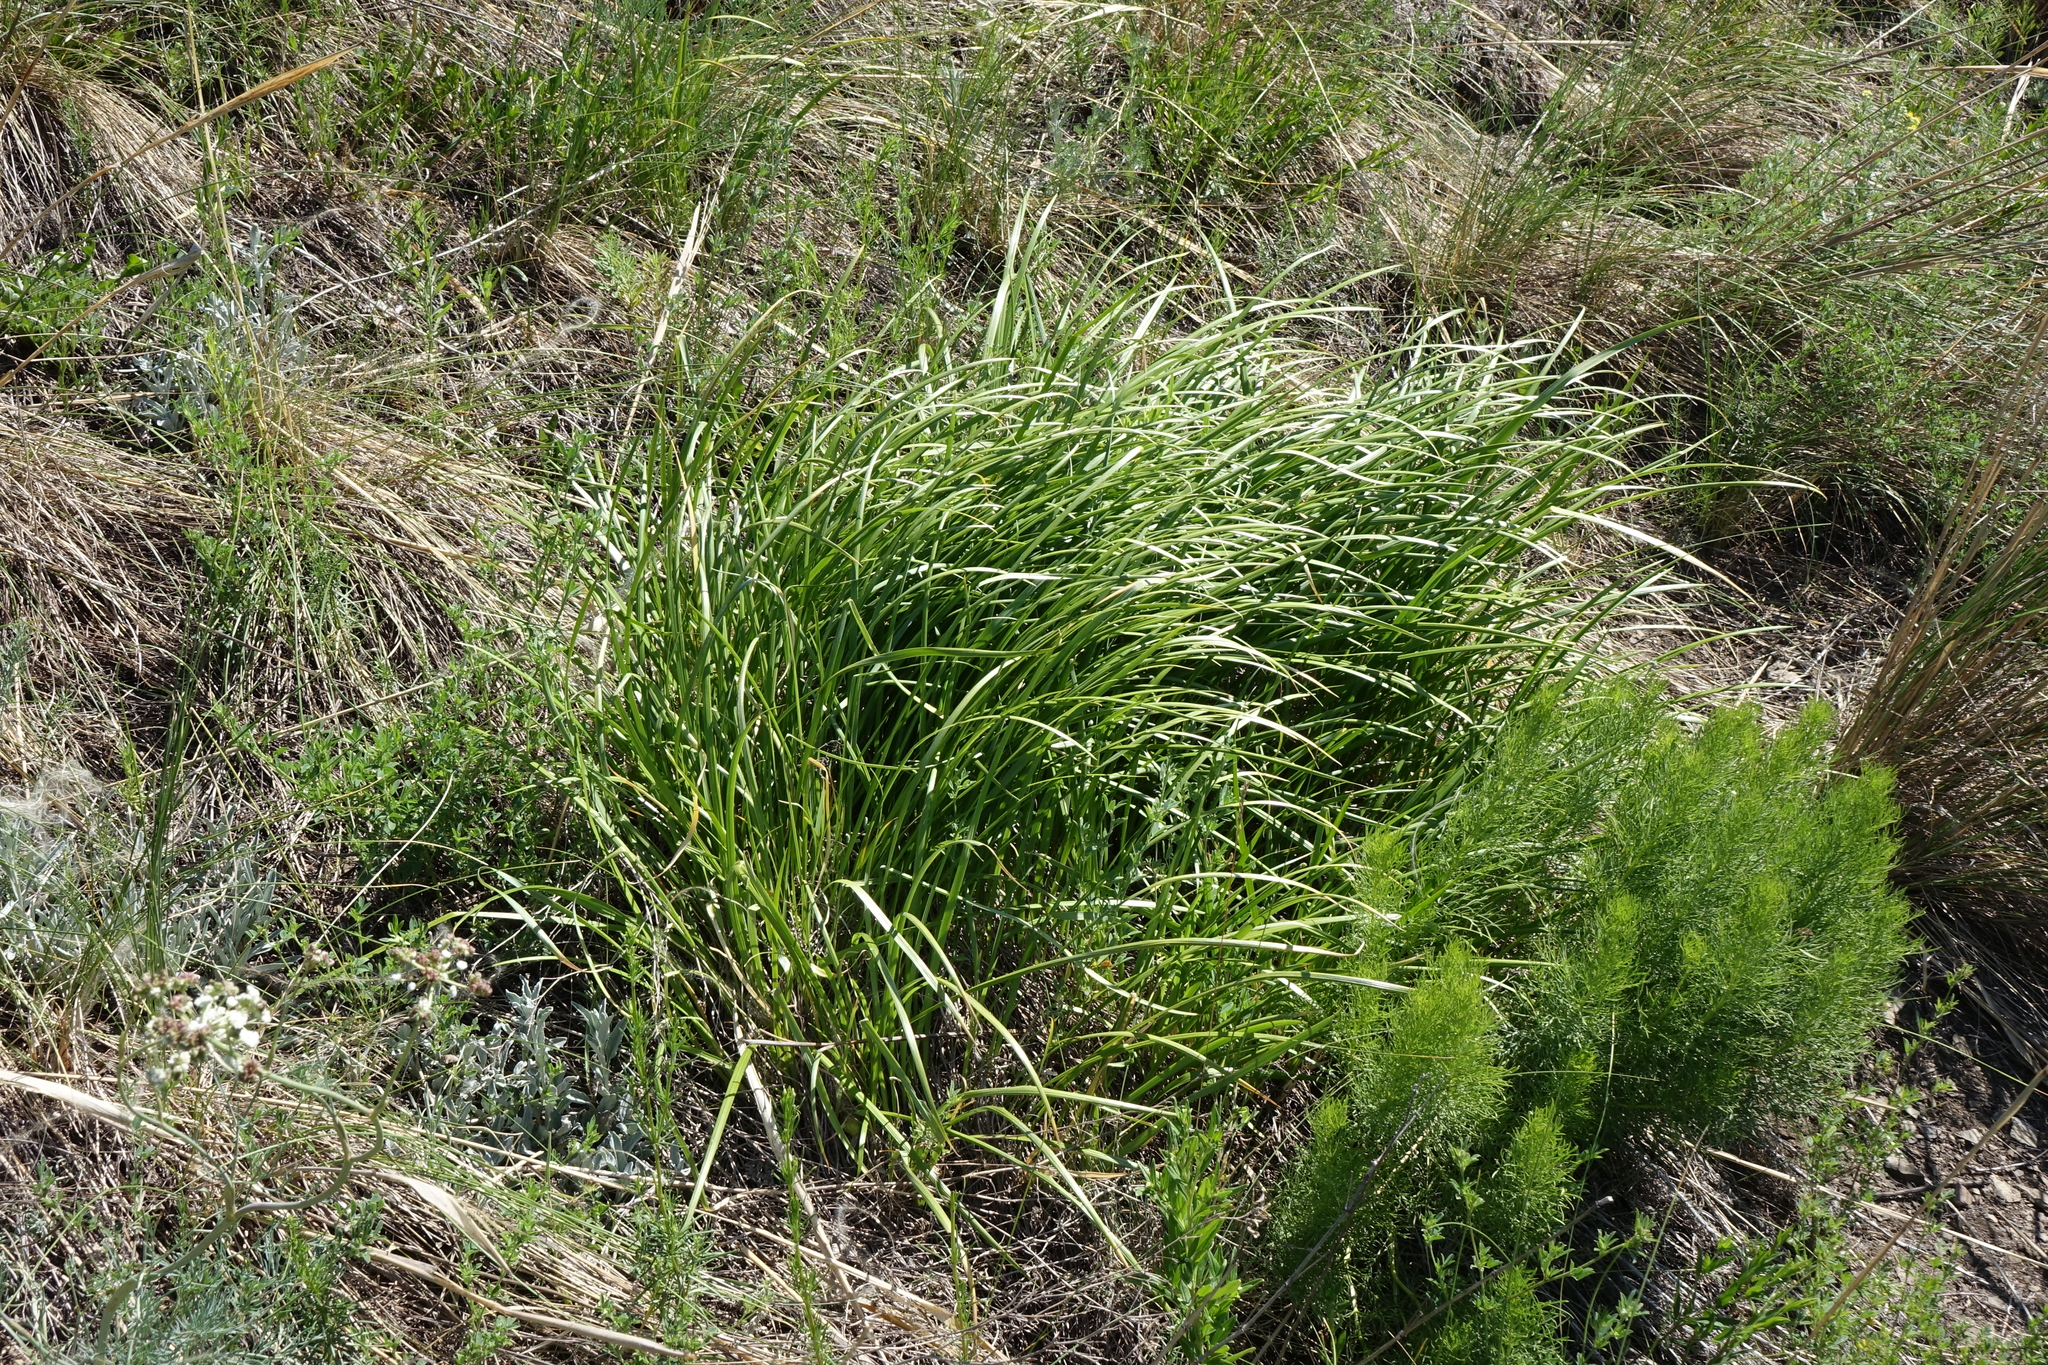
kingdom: Plantae
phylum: Tracheophyta
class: Magnoliopsida
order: Ranunculales
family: Ranunculaceae
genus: Adonis
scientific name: Adonis vernalis
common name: Yellow pheasants-eye
